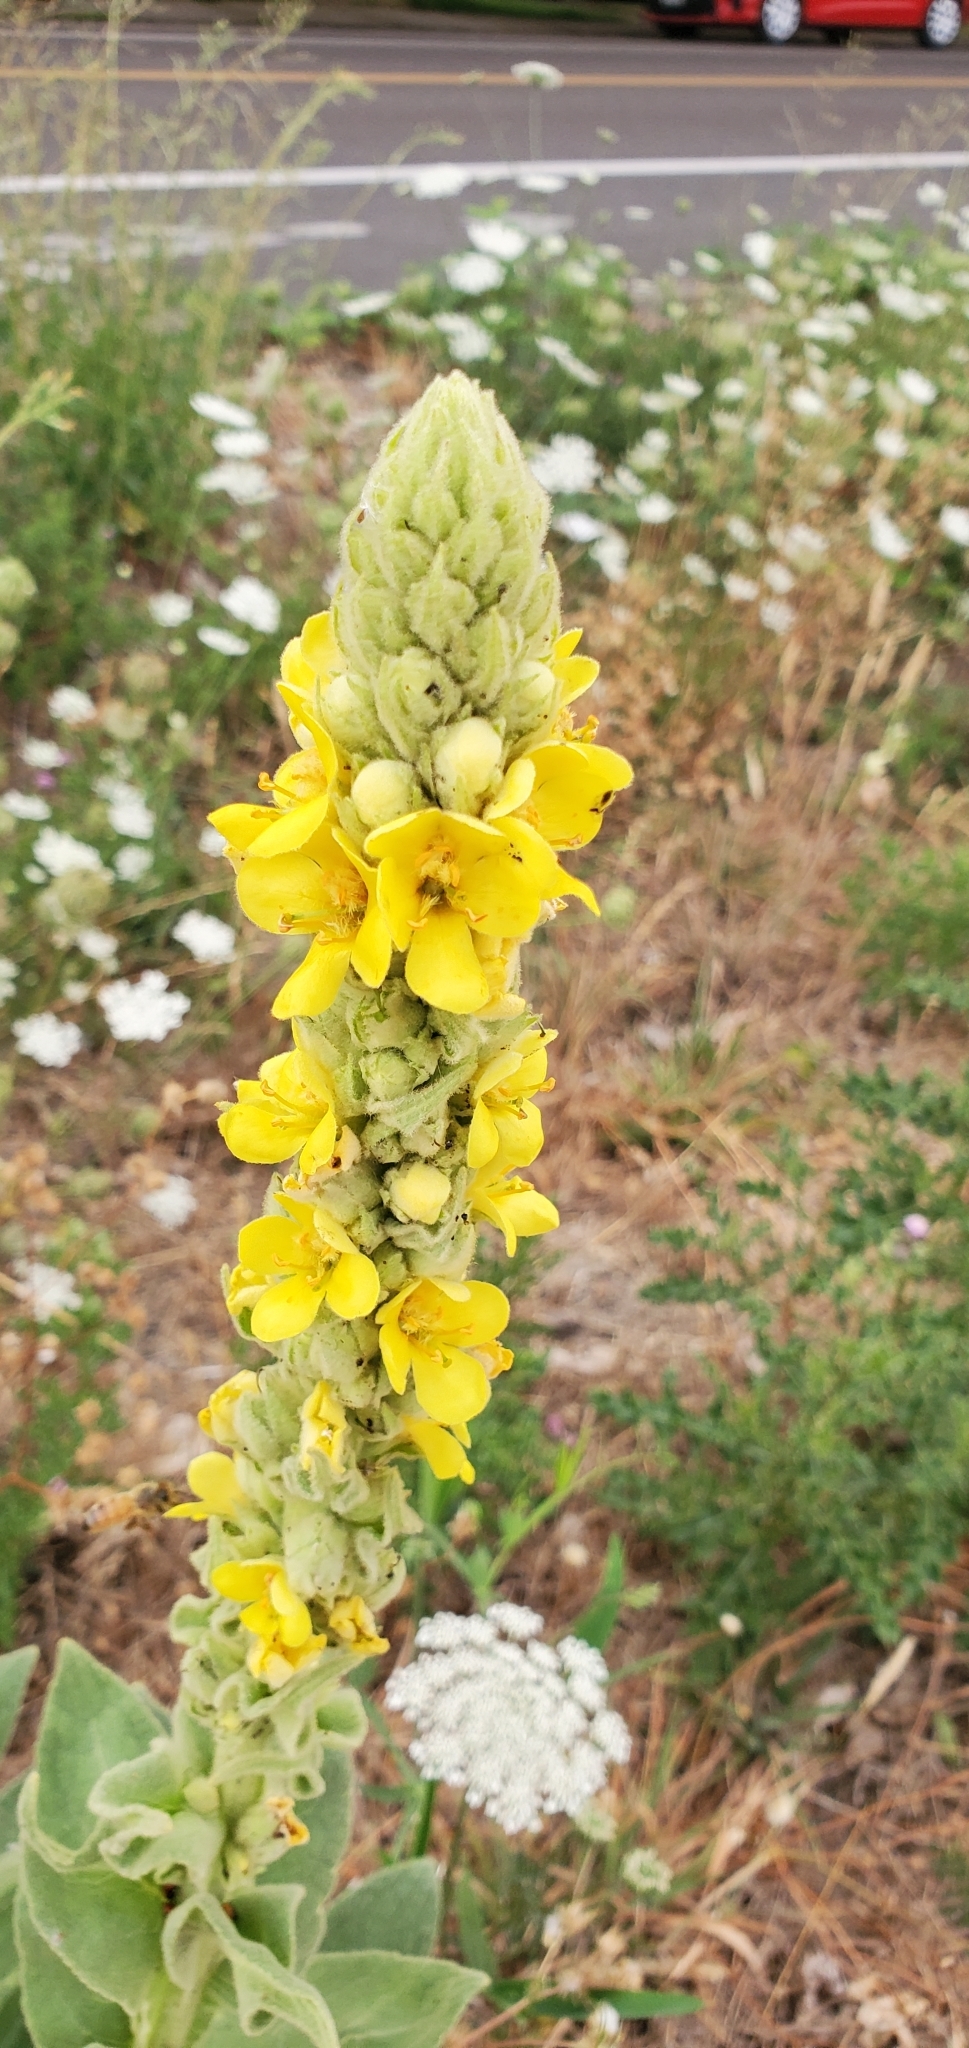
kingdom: Plantae
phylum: Tracheophyta
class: Magnoliopsida
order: Lamiales
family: Scrophulariaceae
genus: Verbascum
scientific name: Verbascum thapsus
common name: Common mullein
